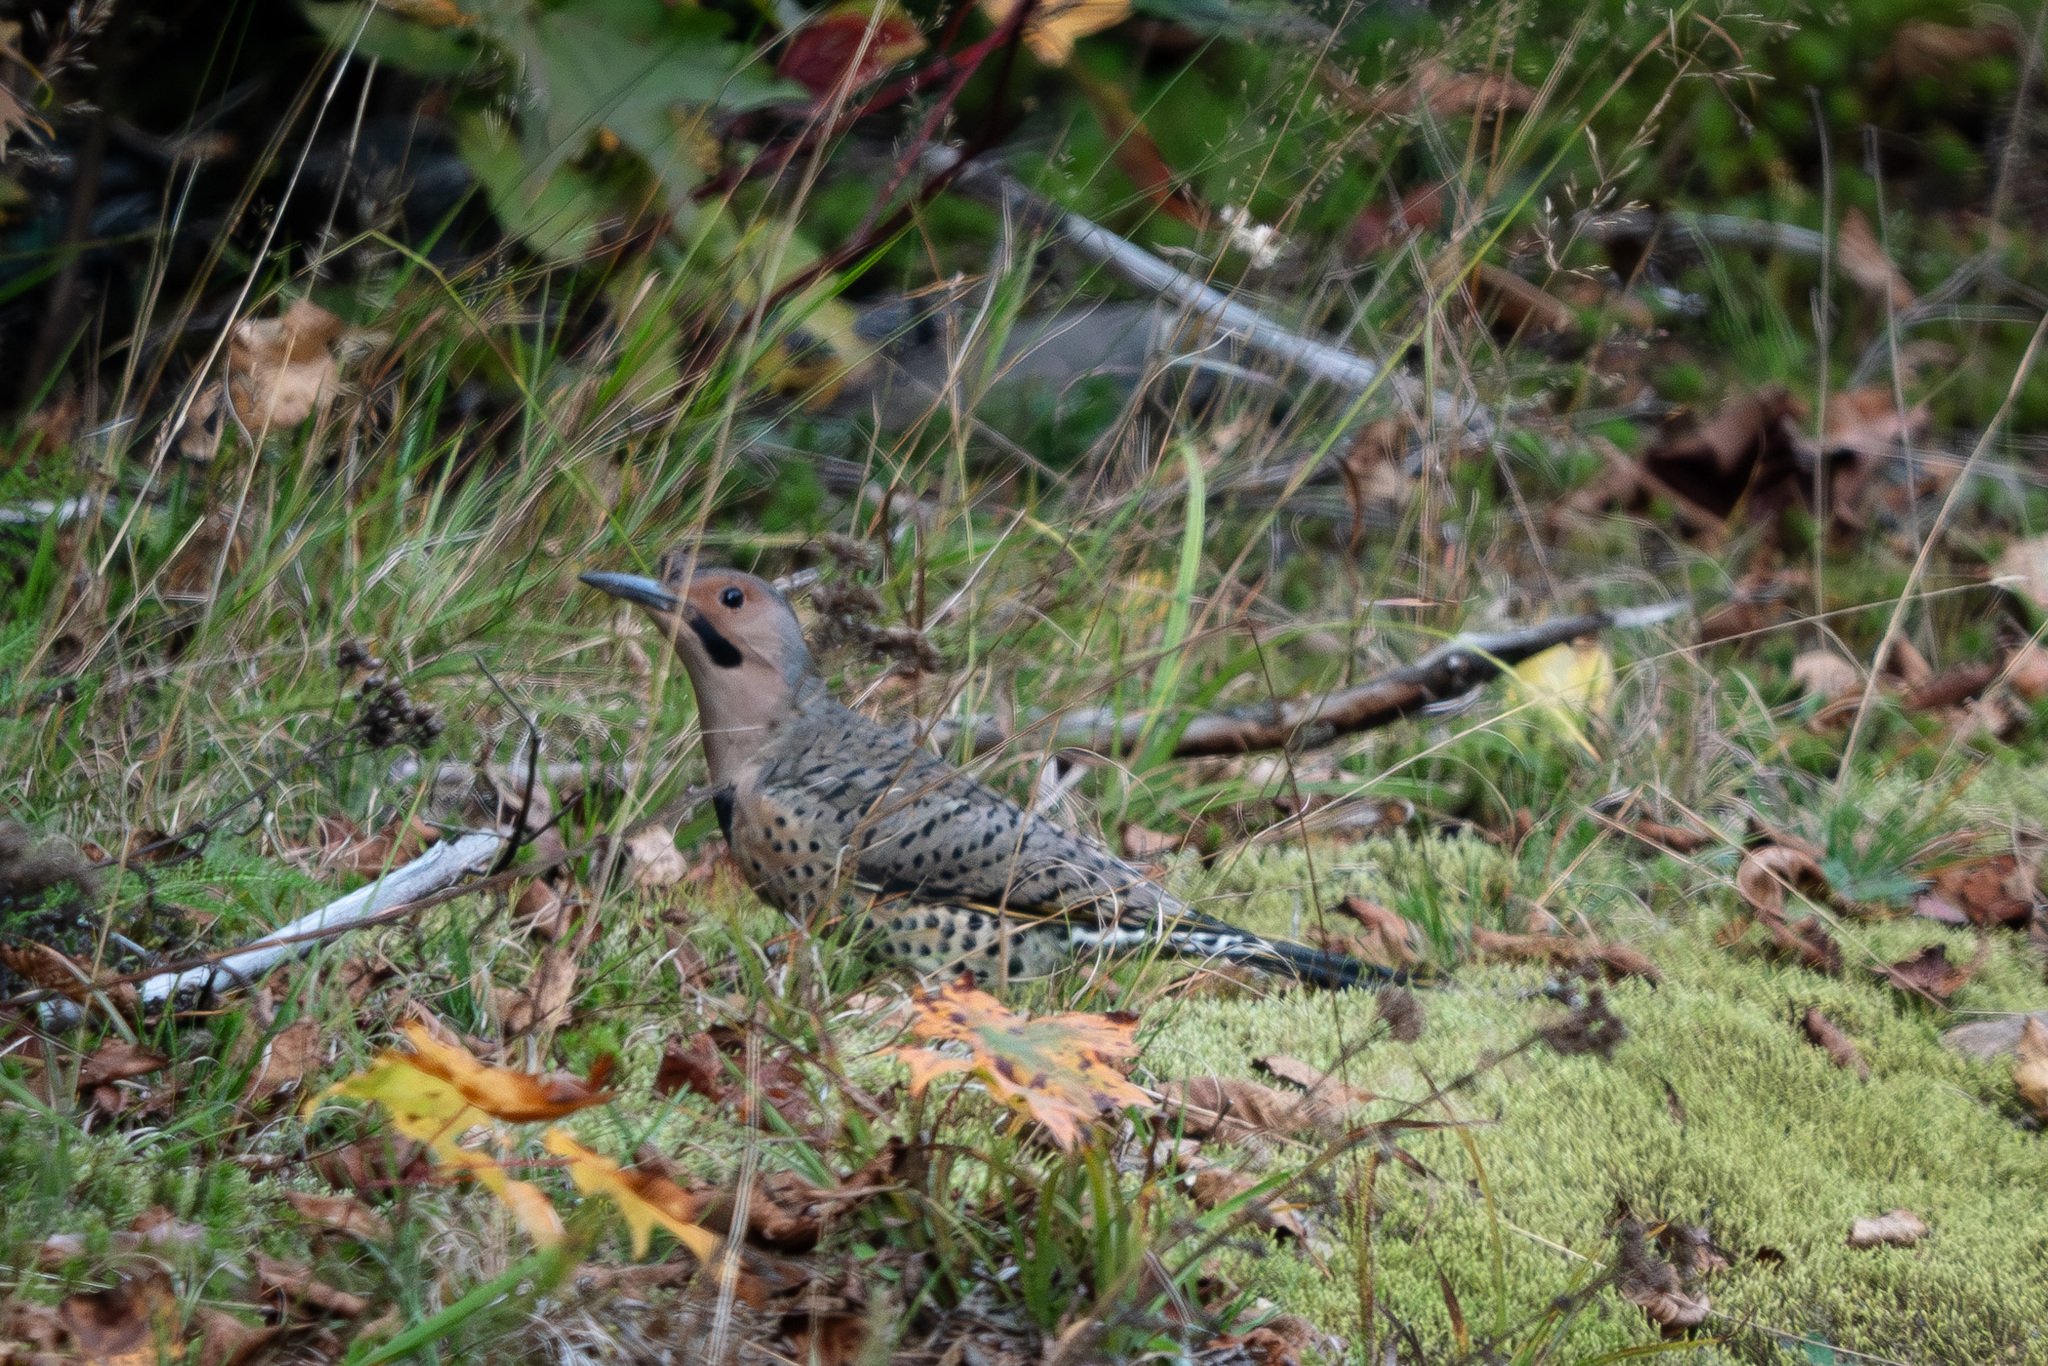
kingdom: Animalia
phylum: Chordata
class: Aves
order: Piciformes
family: Picidae
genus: Colaptes
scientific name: Colaptes auratus
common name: Northern flicker
